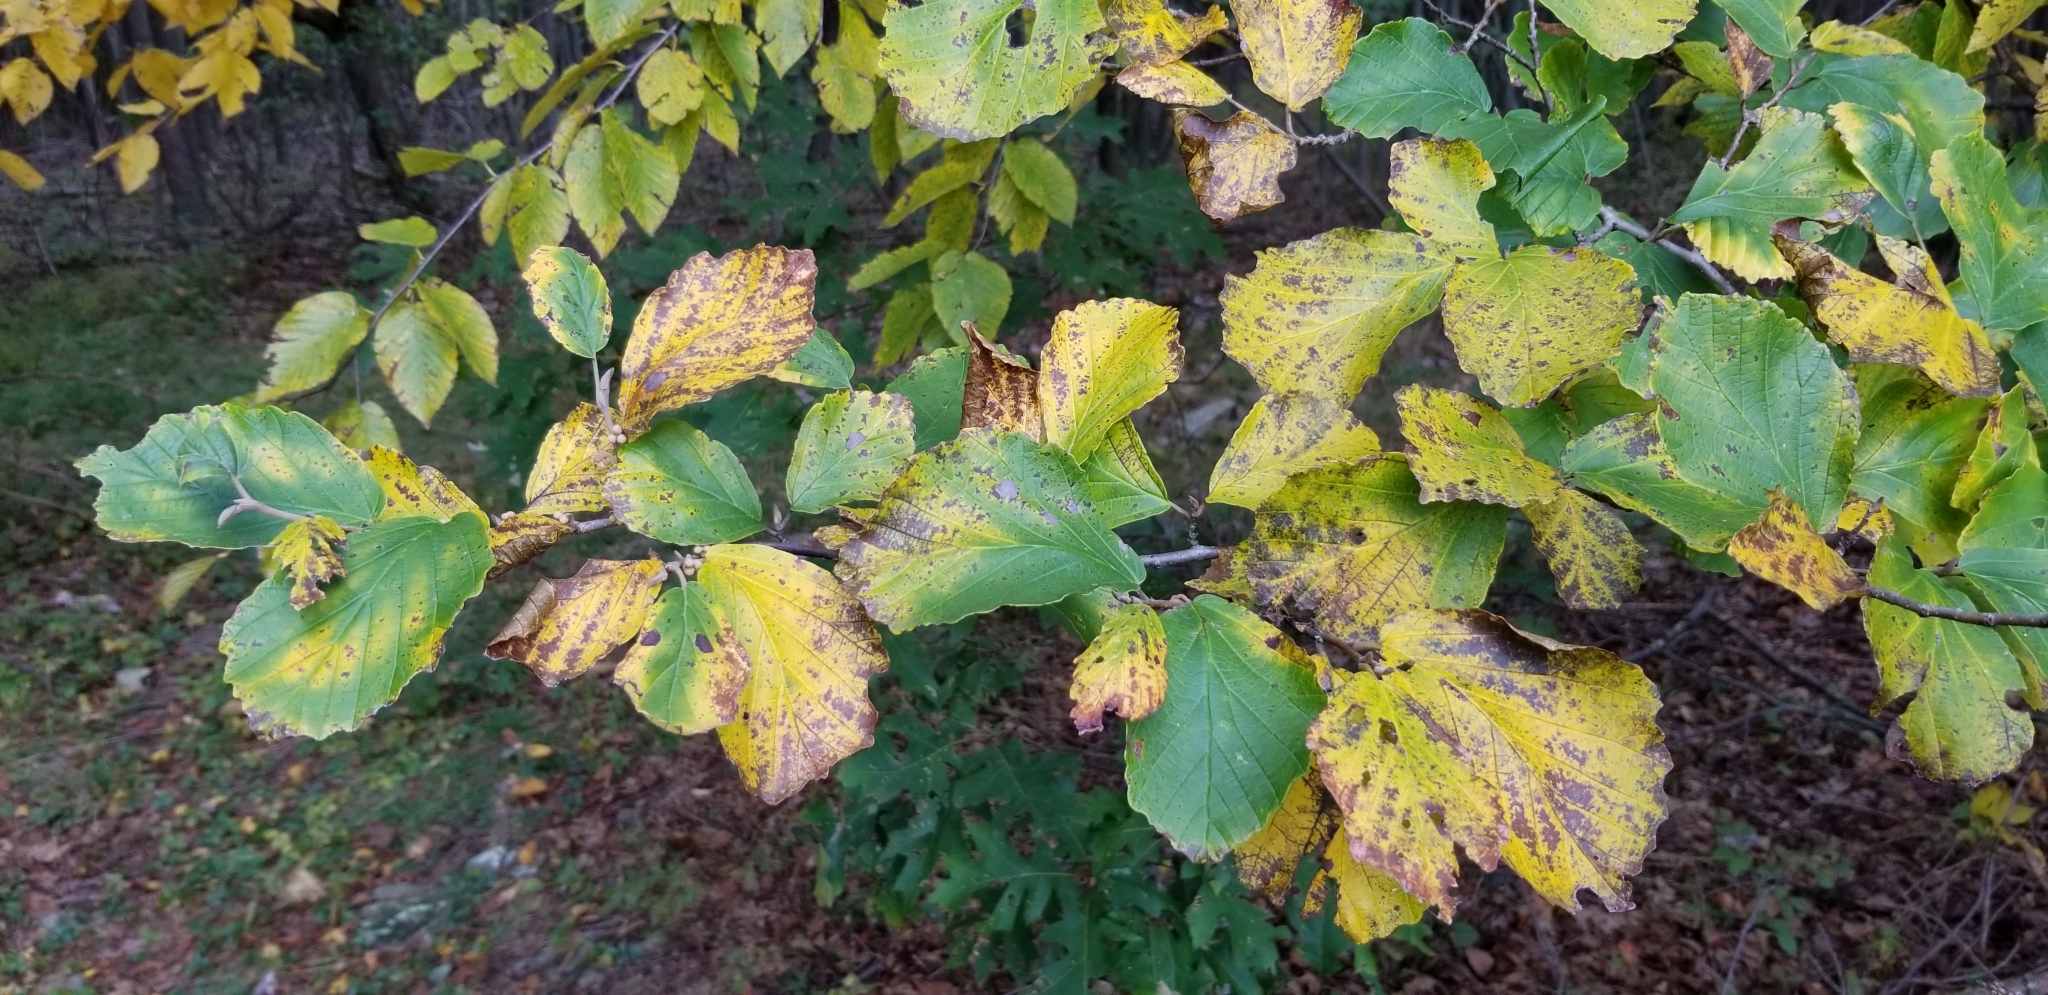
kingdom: Plantae
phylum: Tracheophyta
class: Magnoliopsida
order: Saxifragales
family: Hamamelidaceae
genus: Hamamelis
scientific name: Hamamelis virginiana
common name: Witch-hazel
